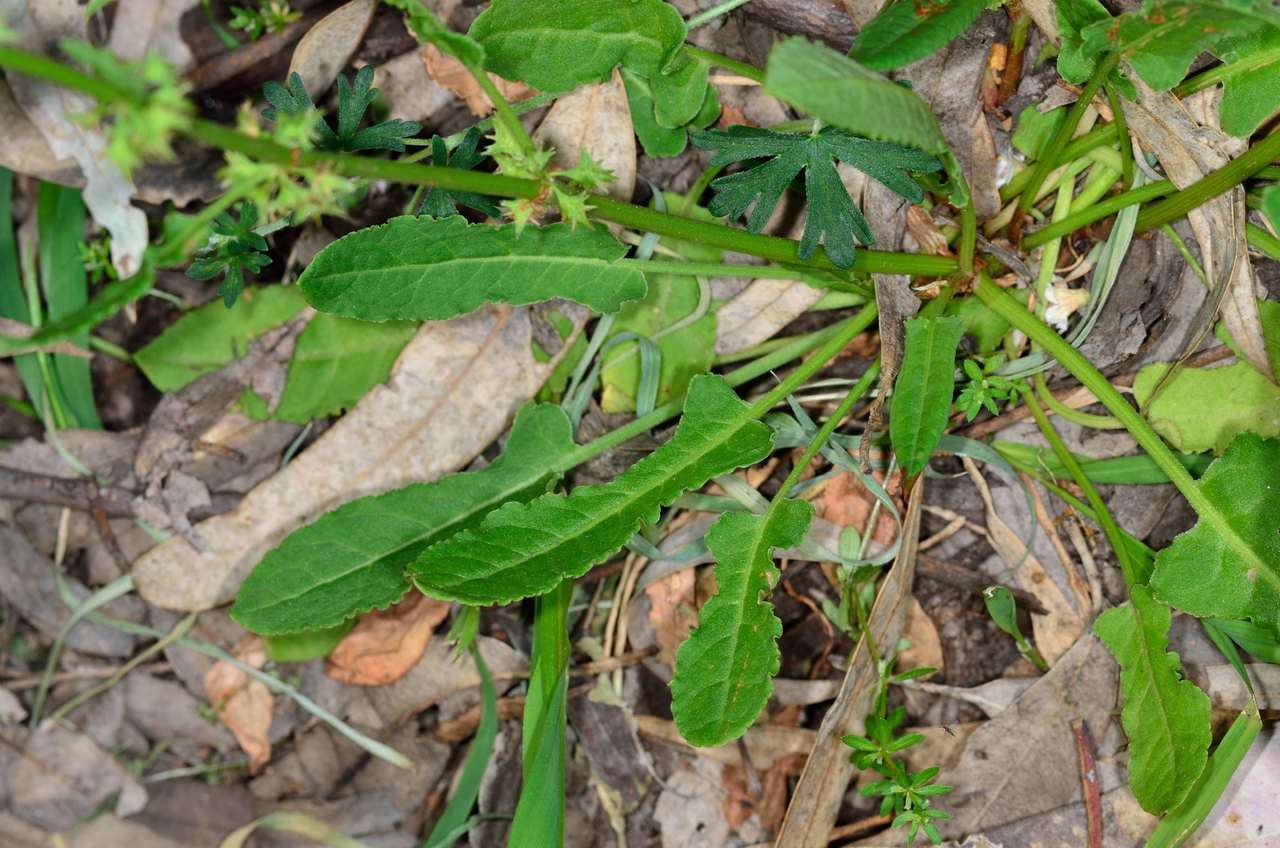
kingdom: Plantae
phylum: Tracheophyta
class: Magnoliopsida
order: Caryophyllales
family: Polygonaceae
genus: Rumex
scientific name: Rumex brownii
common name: Hooked dock
